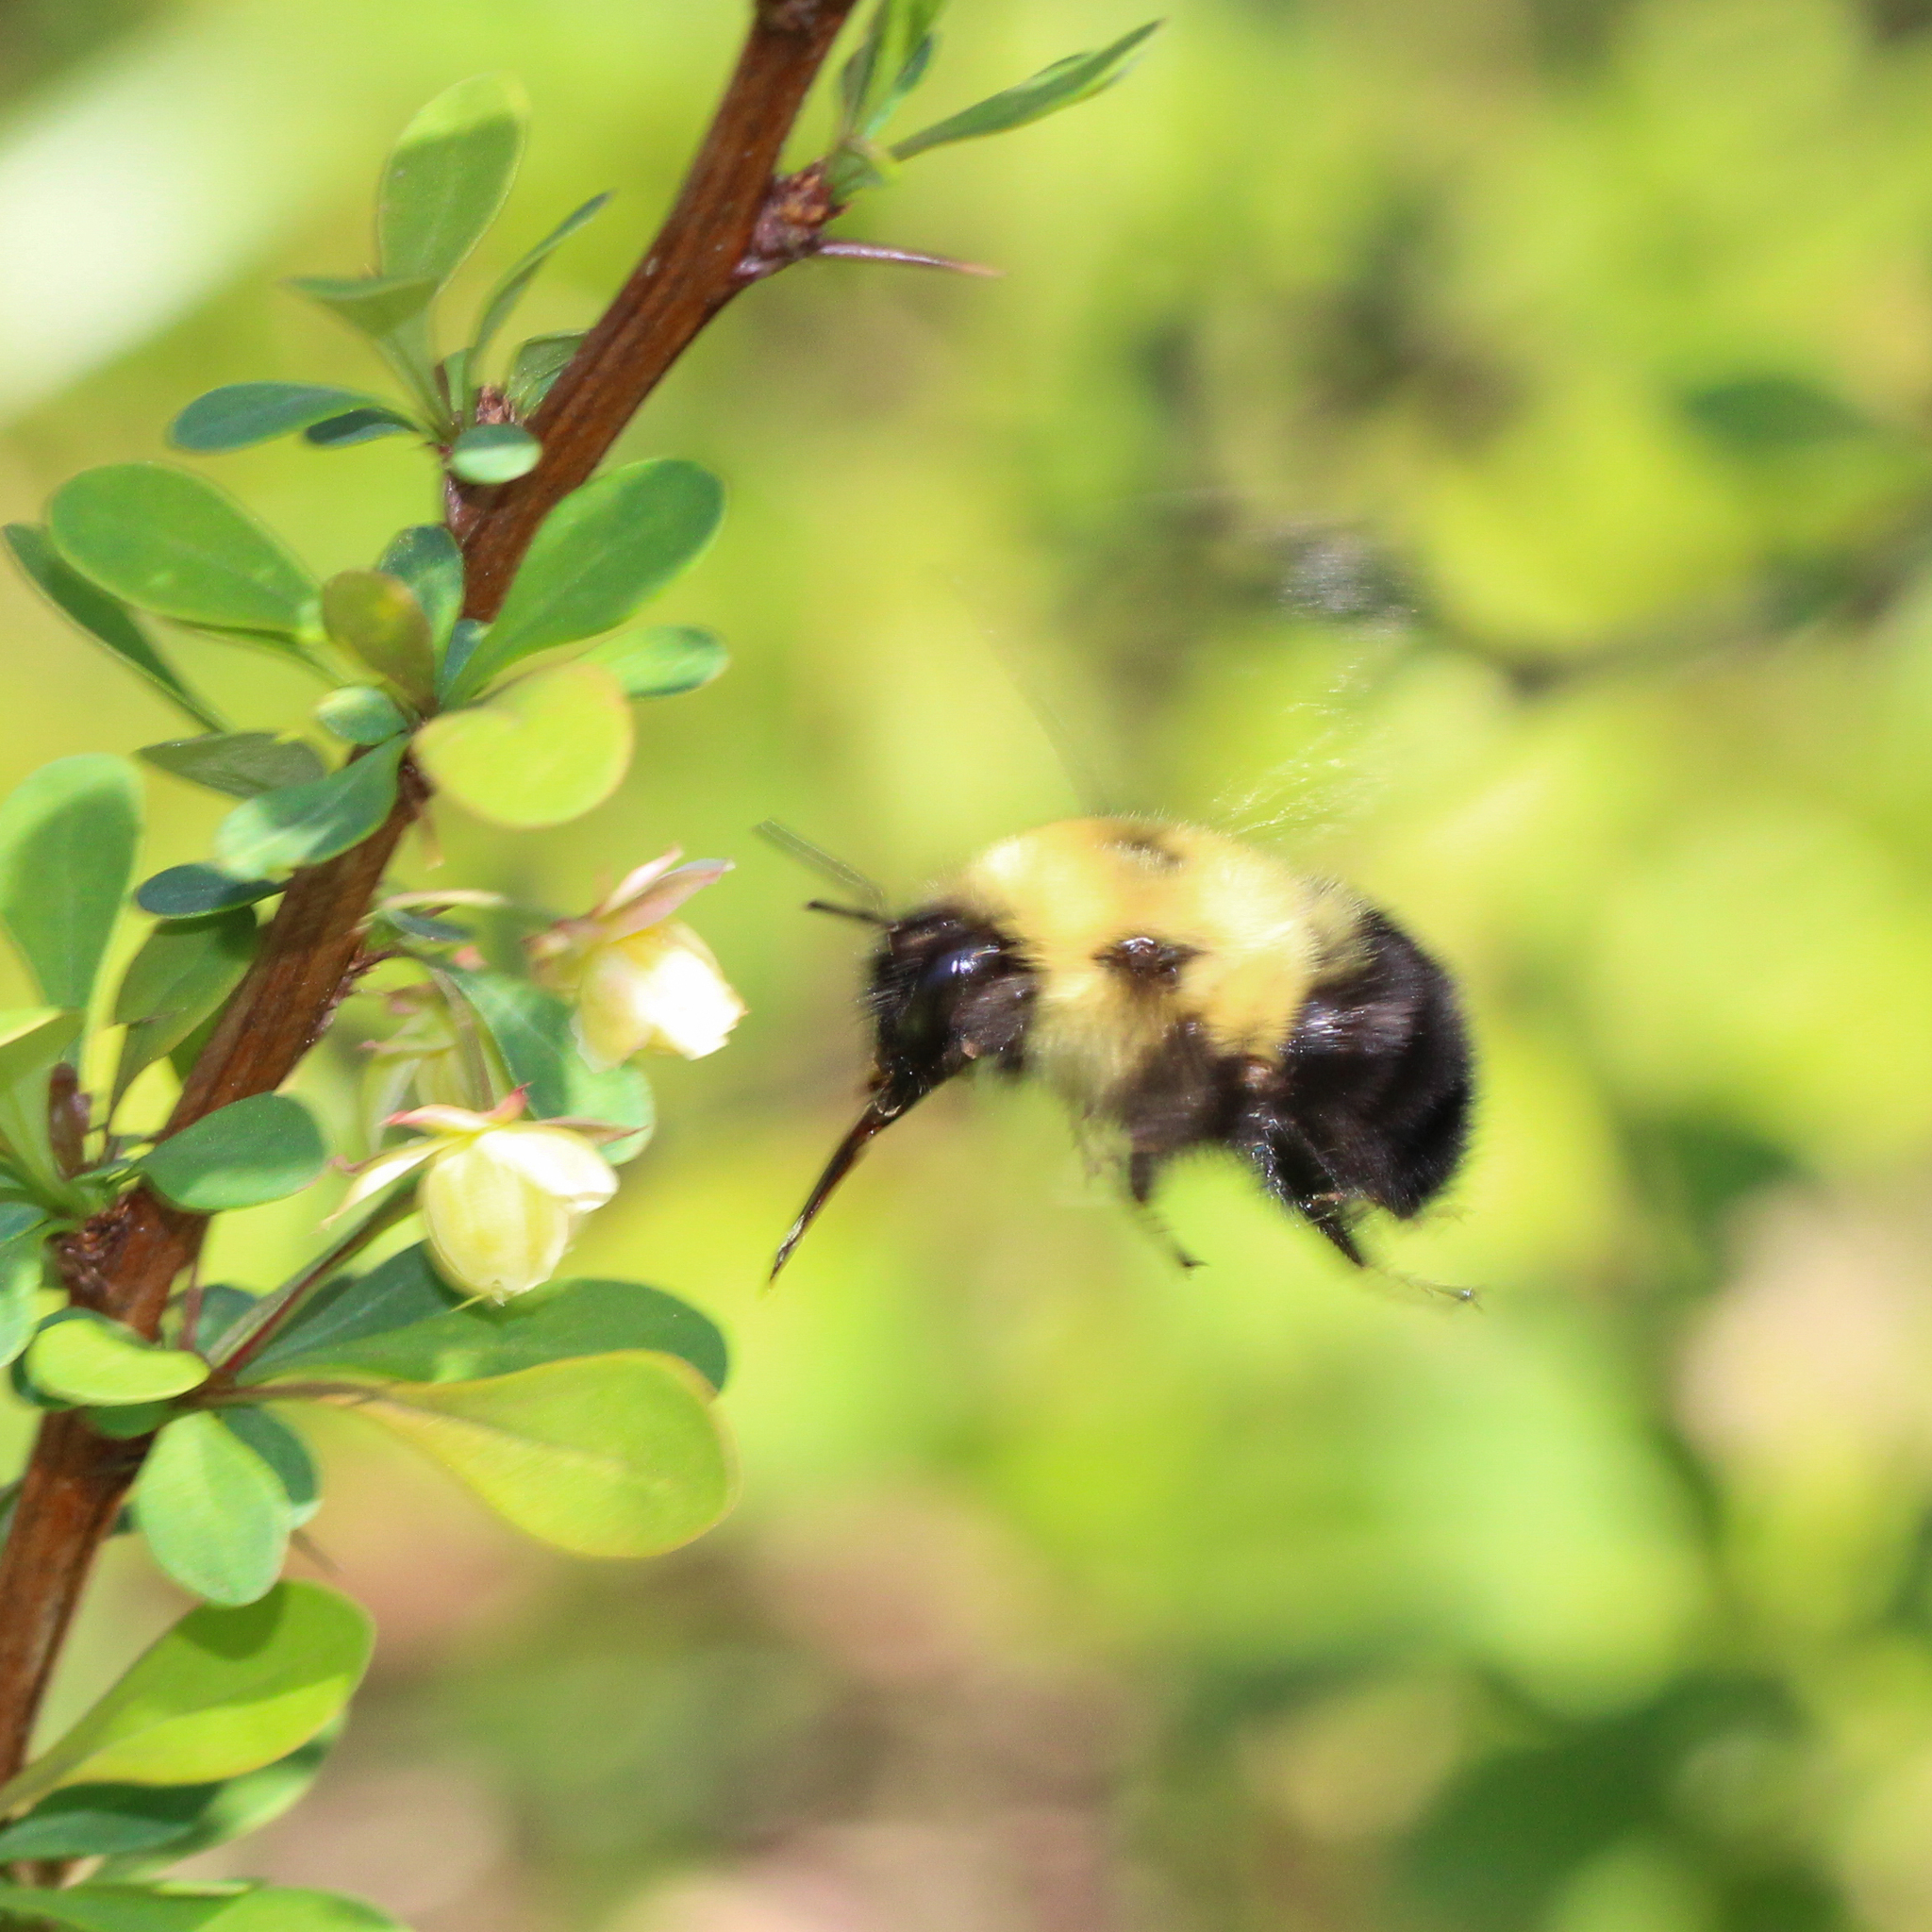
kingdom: Animalia
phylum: Arthropoda
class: Insecta
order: Hymenoptera
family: Apidae
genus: Bombus
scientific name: Bombus bimaculatus
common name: Two-spotted bumble bee
